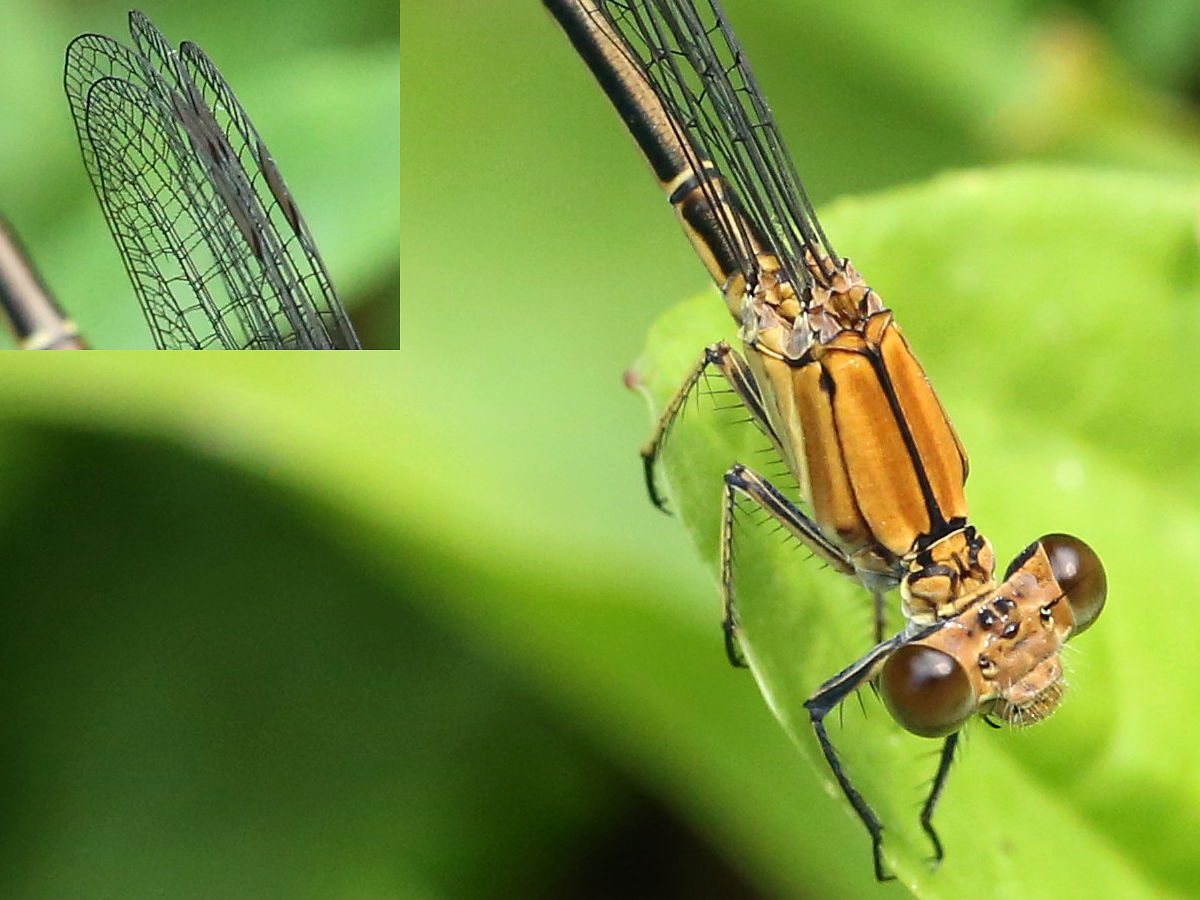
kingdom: Animalia
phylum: Arthropoda
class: Insecta
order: Odonata
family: Coenagrionidae
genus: Argia
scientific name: Argia moesta
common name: Powdered dancer
